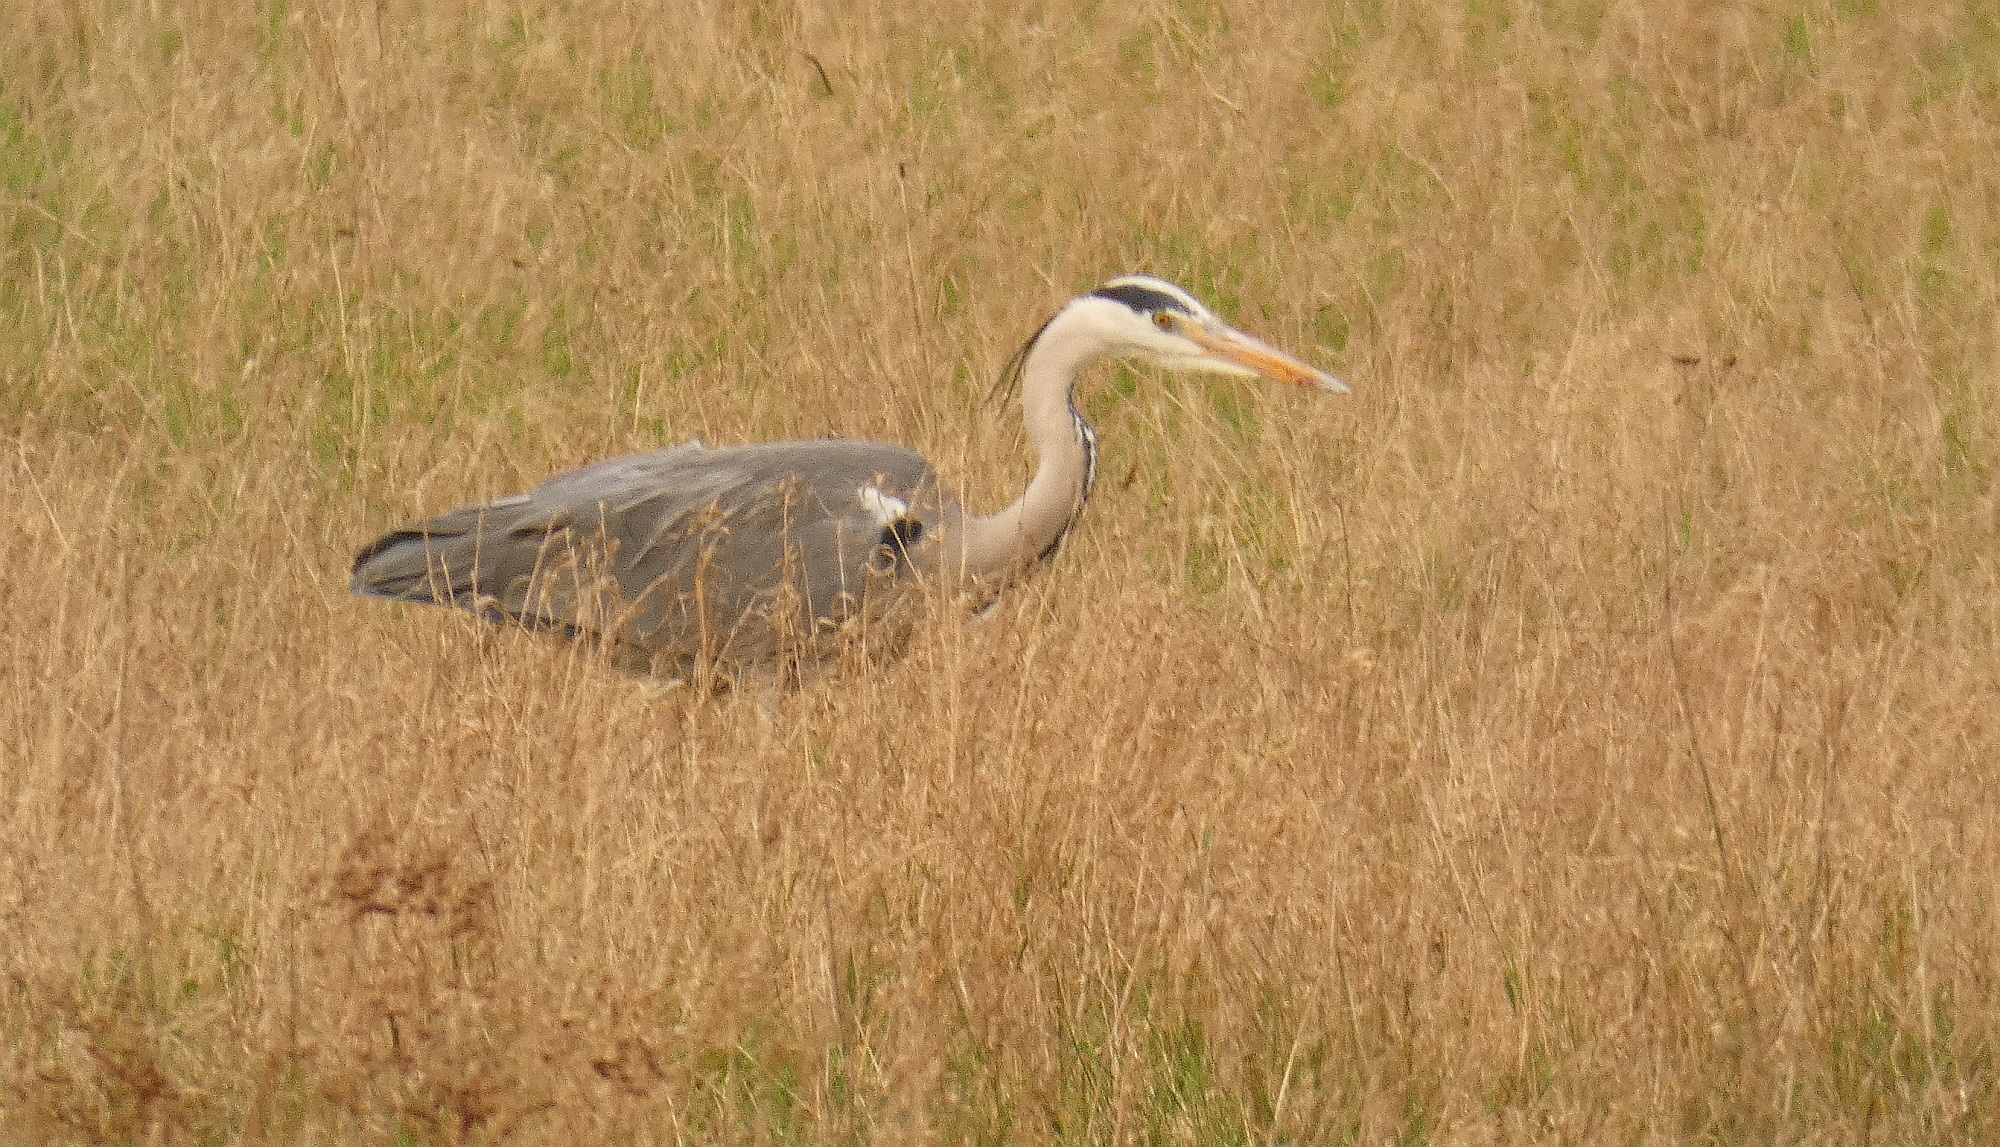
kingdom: Animalia
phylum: Chordata
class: Aves
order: Pelecaniformes
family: Ardeidae
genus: Ardea
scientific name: Ardea cinerea
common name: Grey heron
